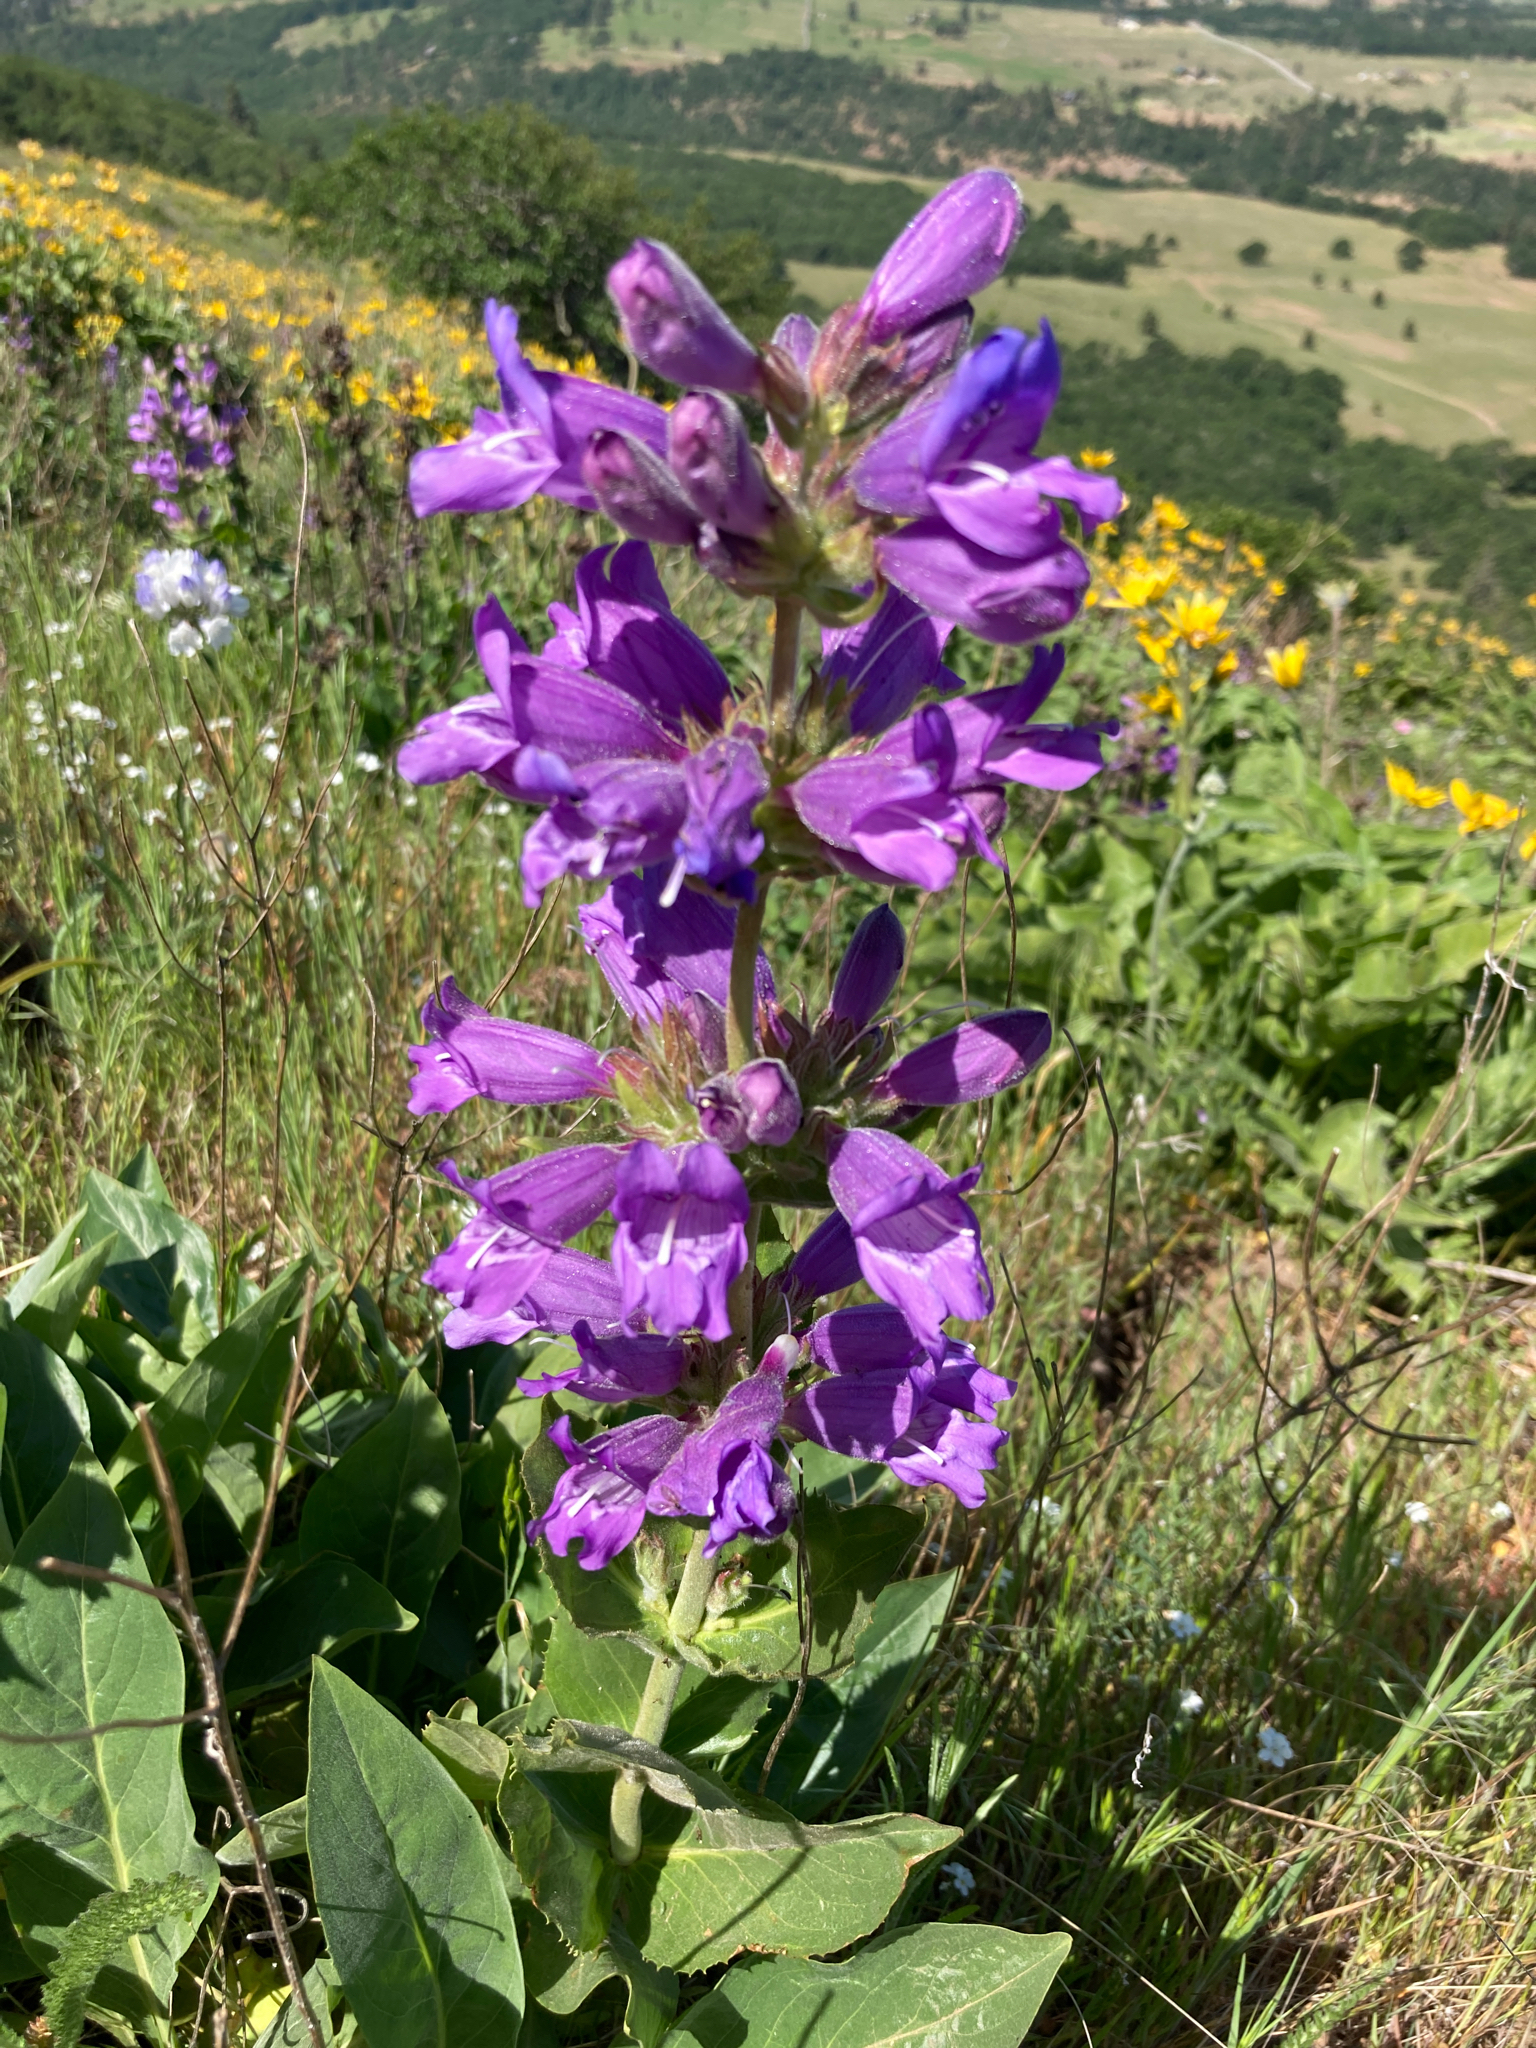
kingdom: Plantae
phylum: Tracheophyta
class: Magnoliopsida
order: Lamiales
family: Plantaginaceae
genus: Penstemon
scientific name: Penstemon glandulosus
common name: Sticky-stem penstemon
